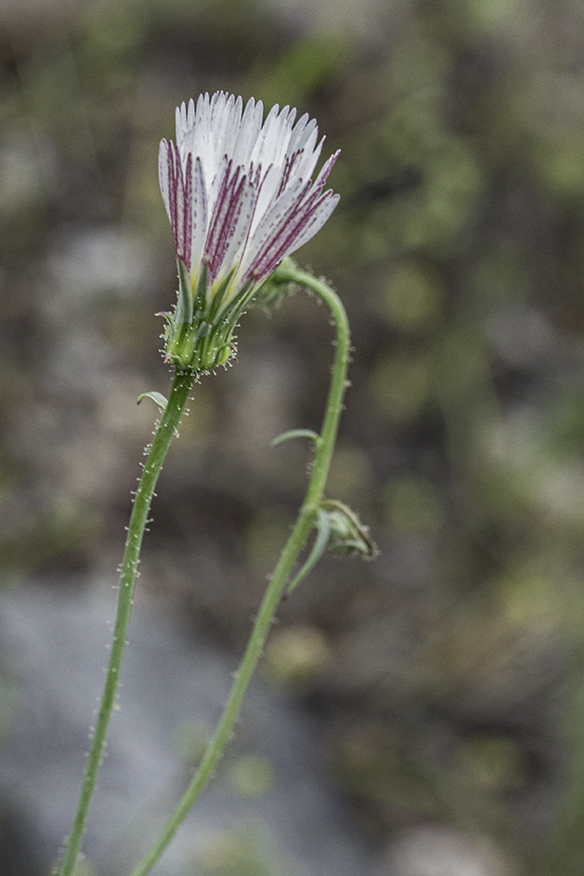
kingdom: Plantae
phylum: Tracheophyta
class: Magnoliopsida
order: Asterales
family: Asteraceae
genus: Calycoseris
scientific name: Calycoseris wrightii
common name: White tackstem
